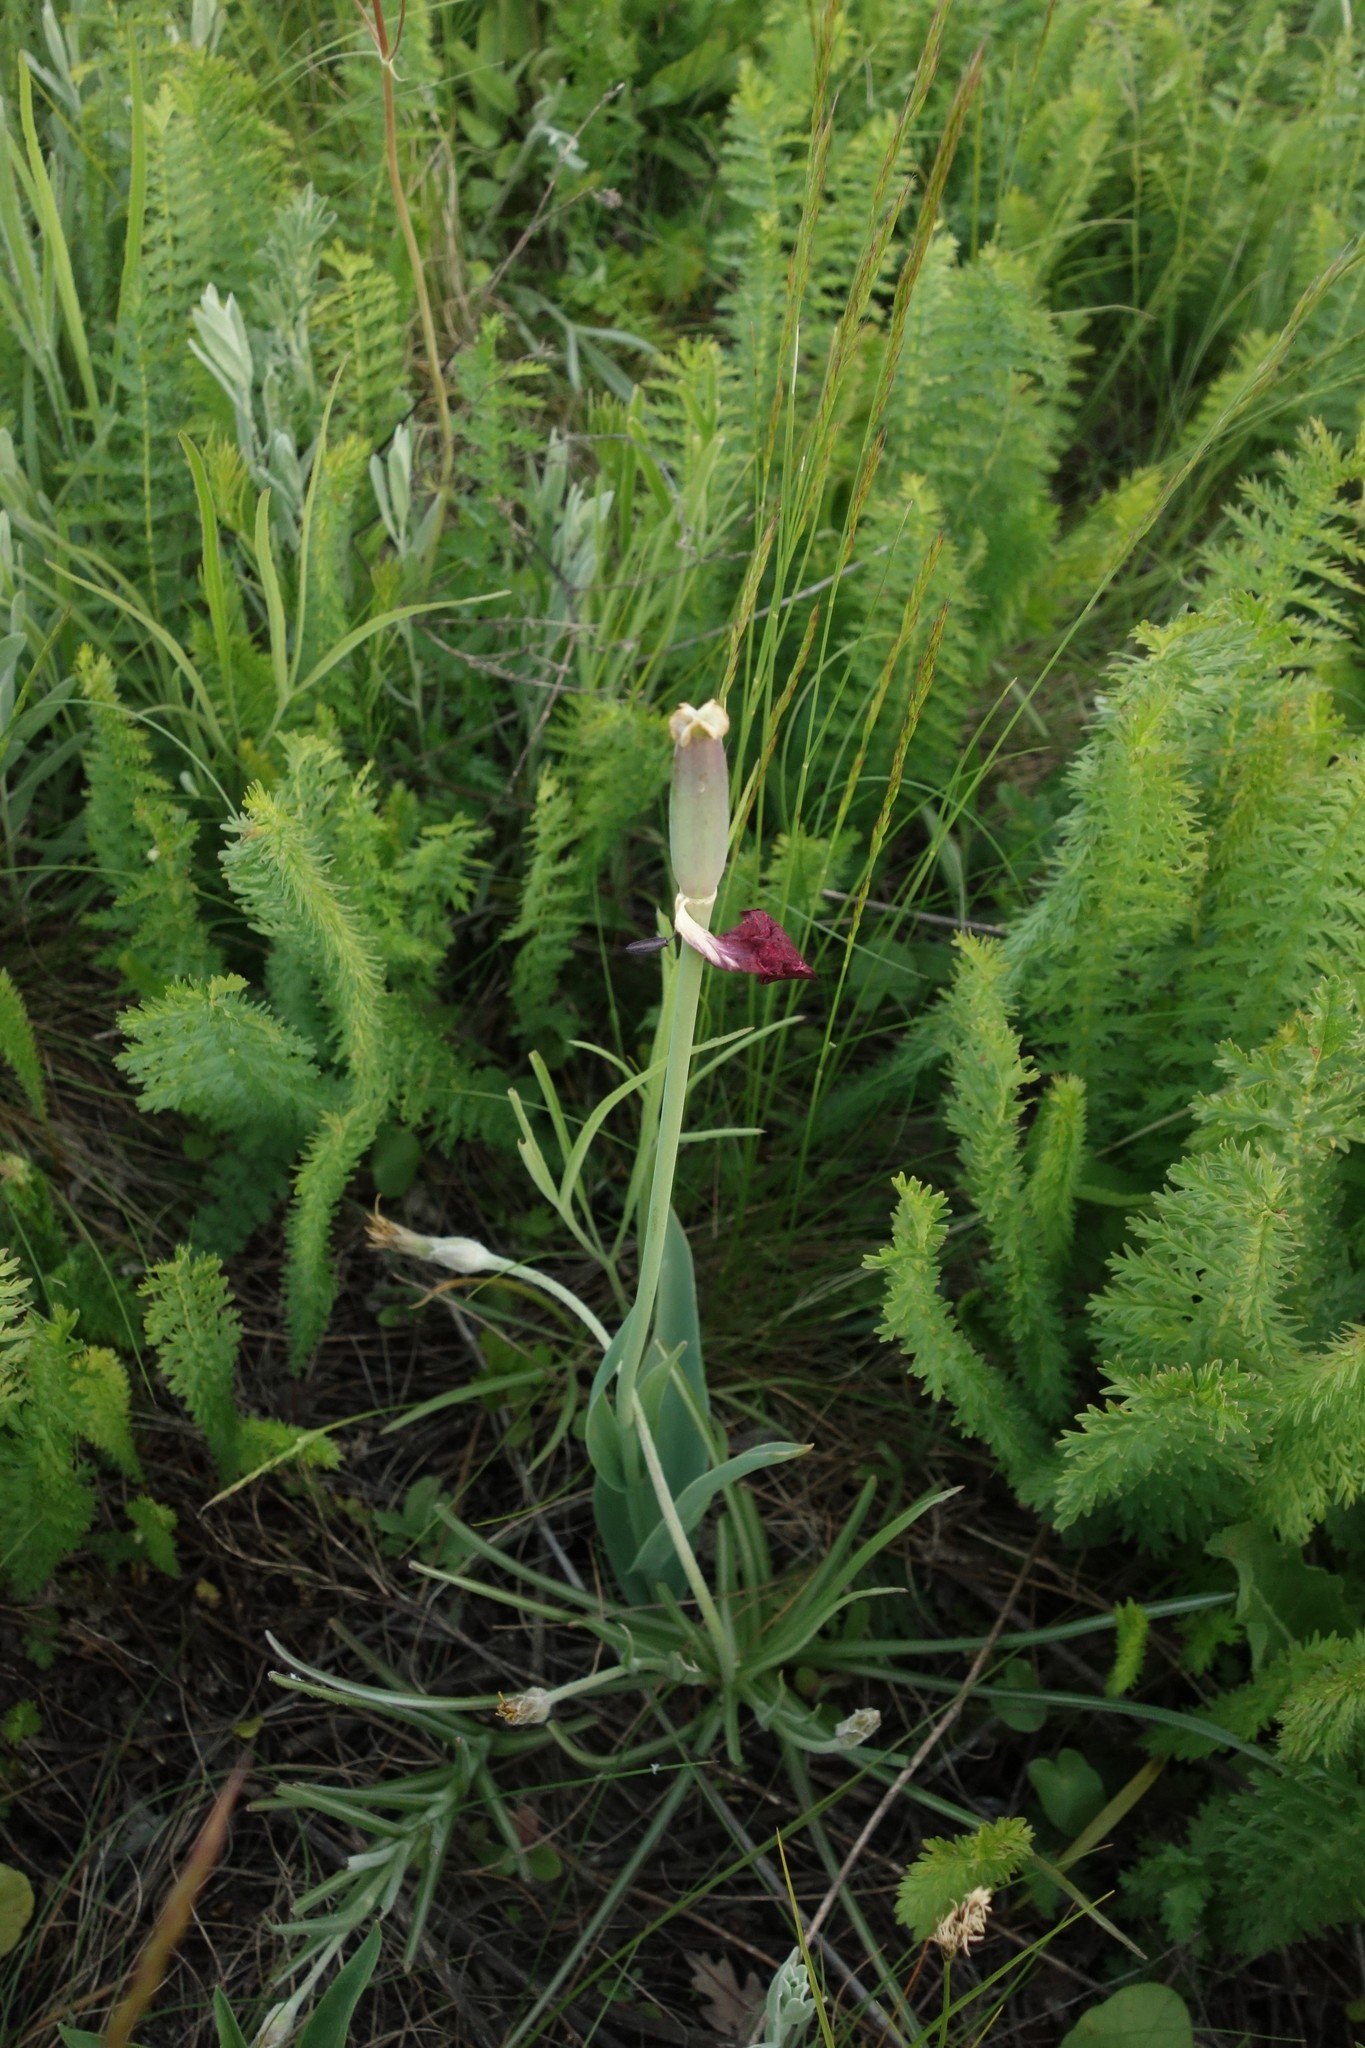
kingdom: Plantae
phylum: Tracheophyta
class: Liliopsida
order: Liliales
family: Liliaceae
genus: Tulipa
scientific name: Tulipa suaveolens
